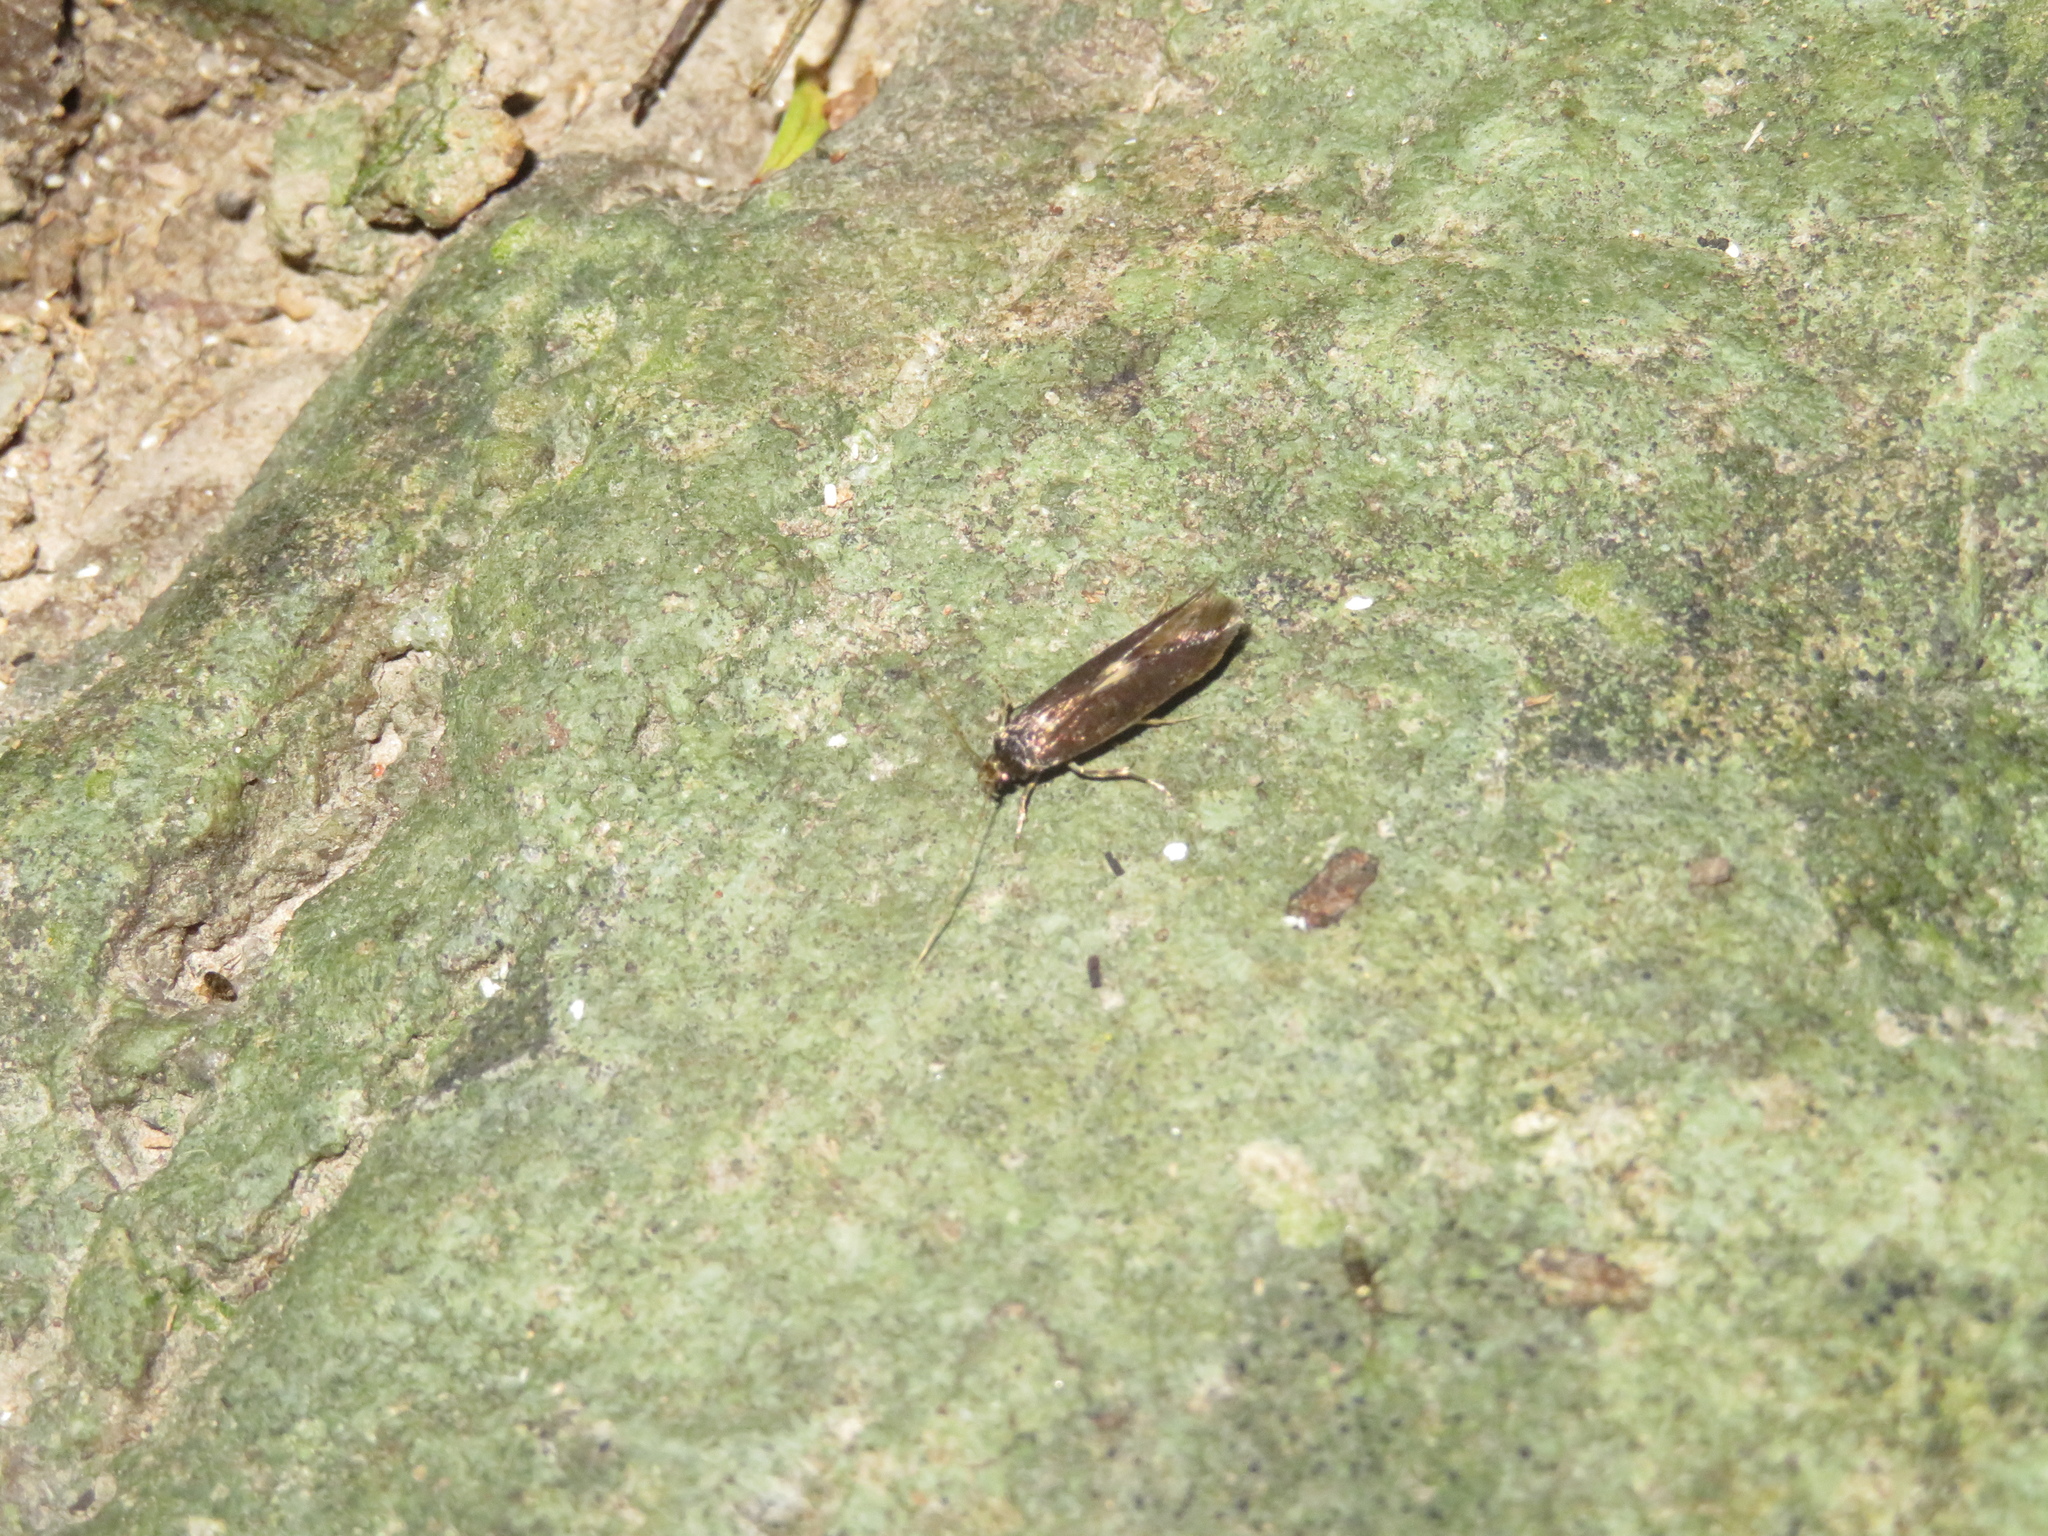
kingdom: Animalia
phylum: Arthropoda
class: Insecta
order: Lepidoptera
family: Tineidae
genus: Opogona
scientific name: Opogona omoscopa
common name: Moth
